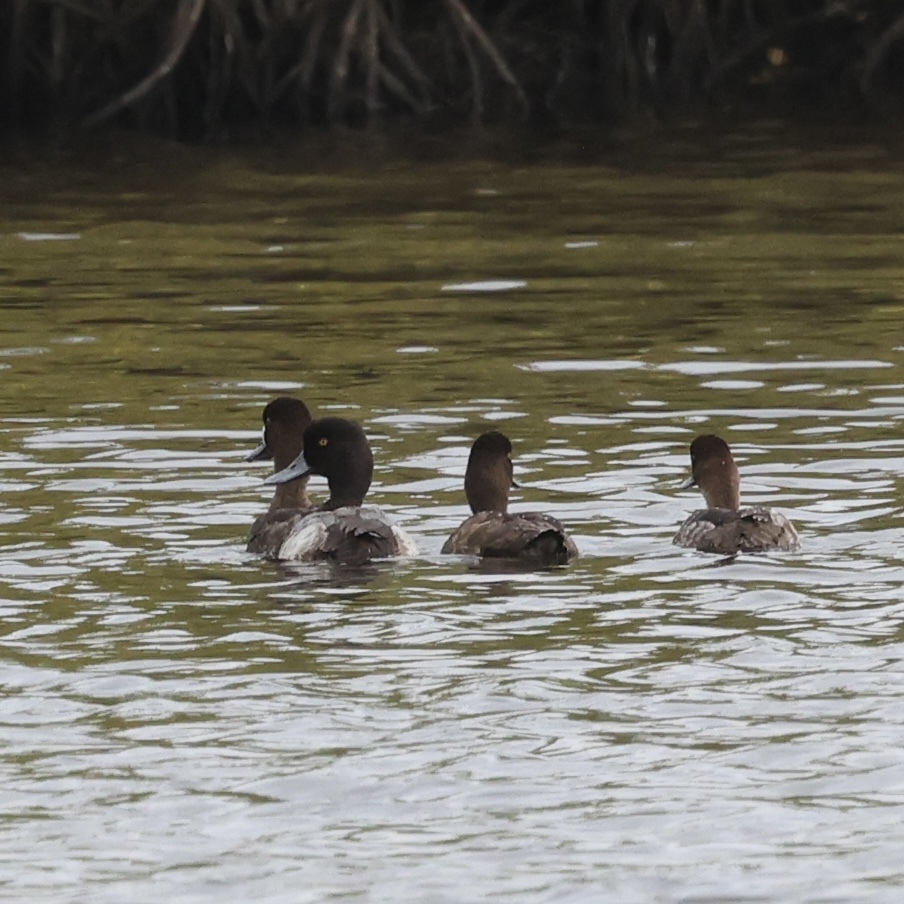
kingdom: Animalia
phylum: Chordata
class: Aves
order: Anseriformes
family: Anatidae
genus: Aythya
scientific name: Aythya affinis
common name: Lesser scaup
